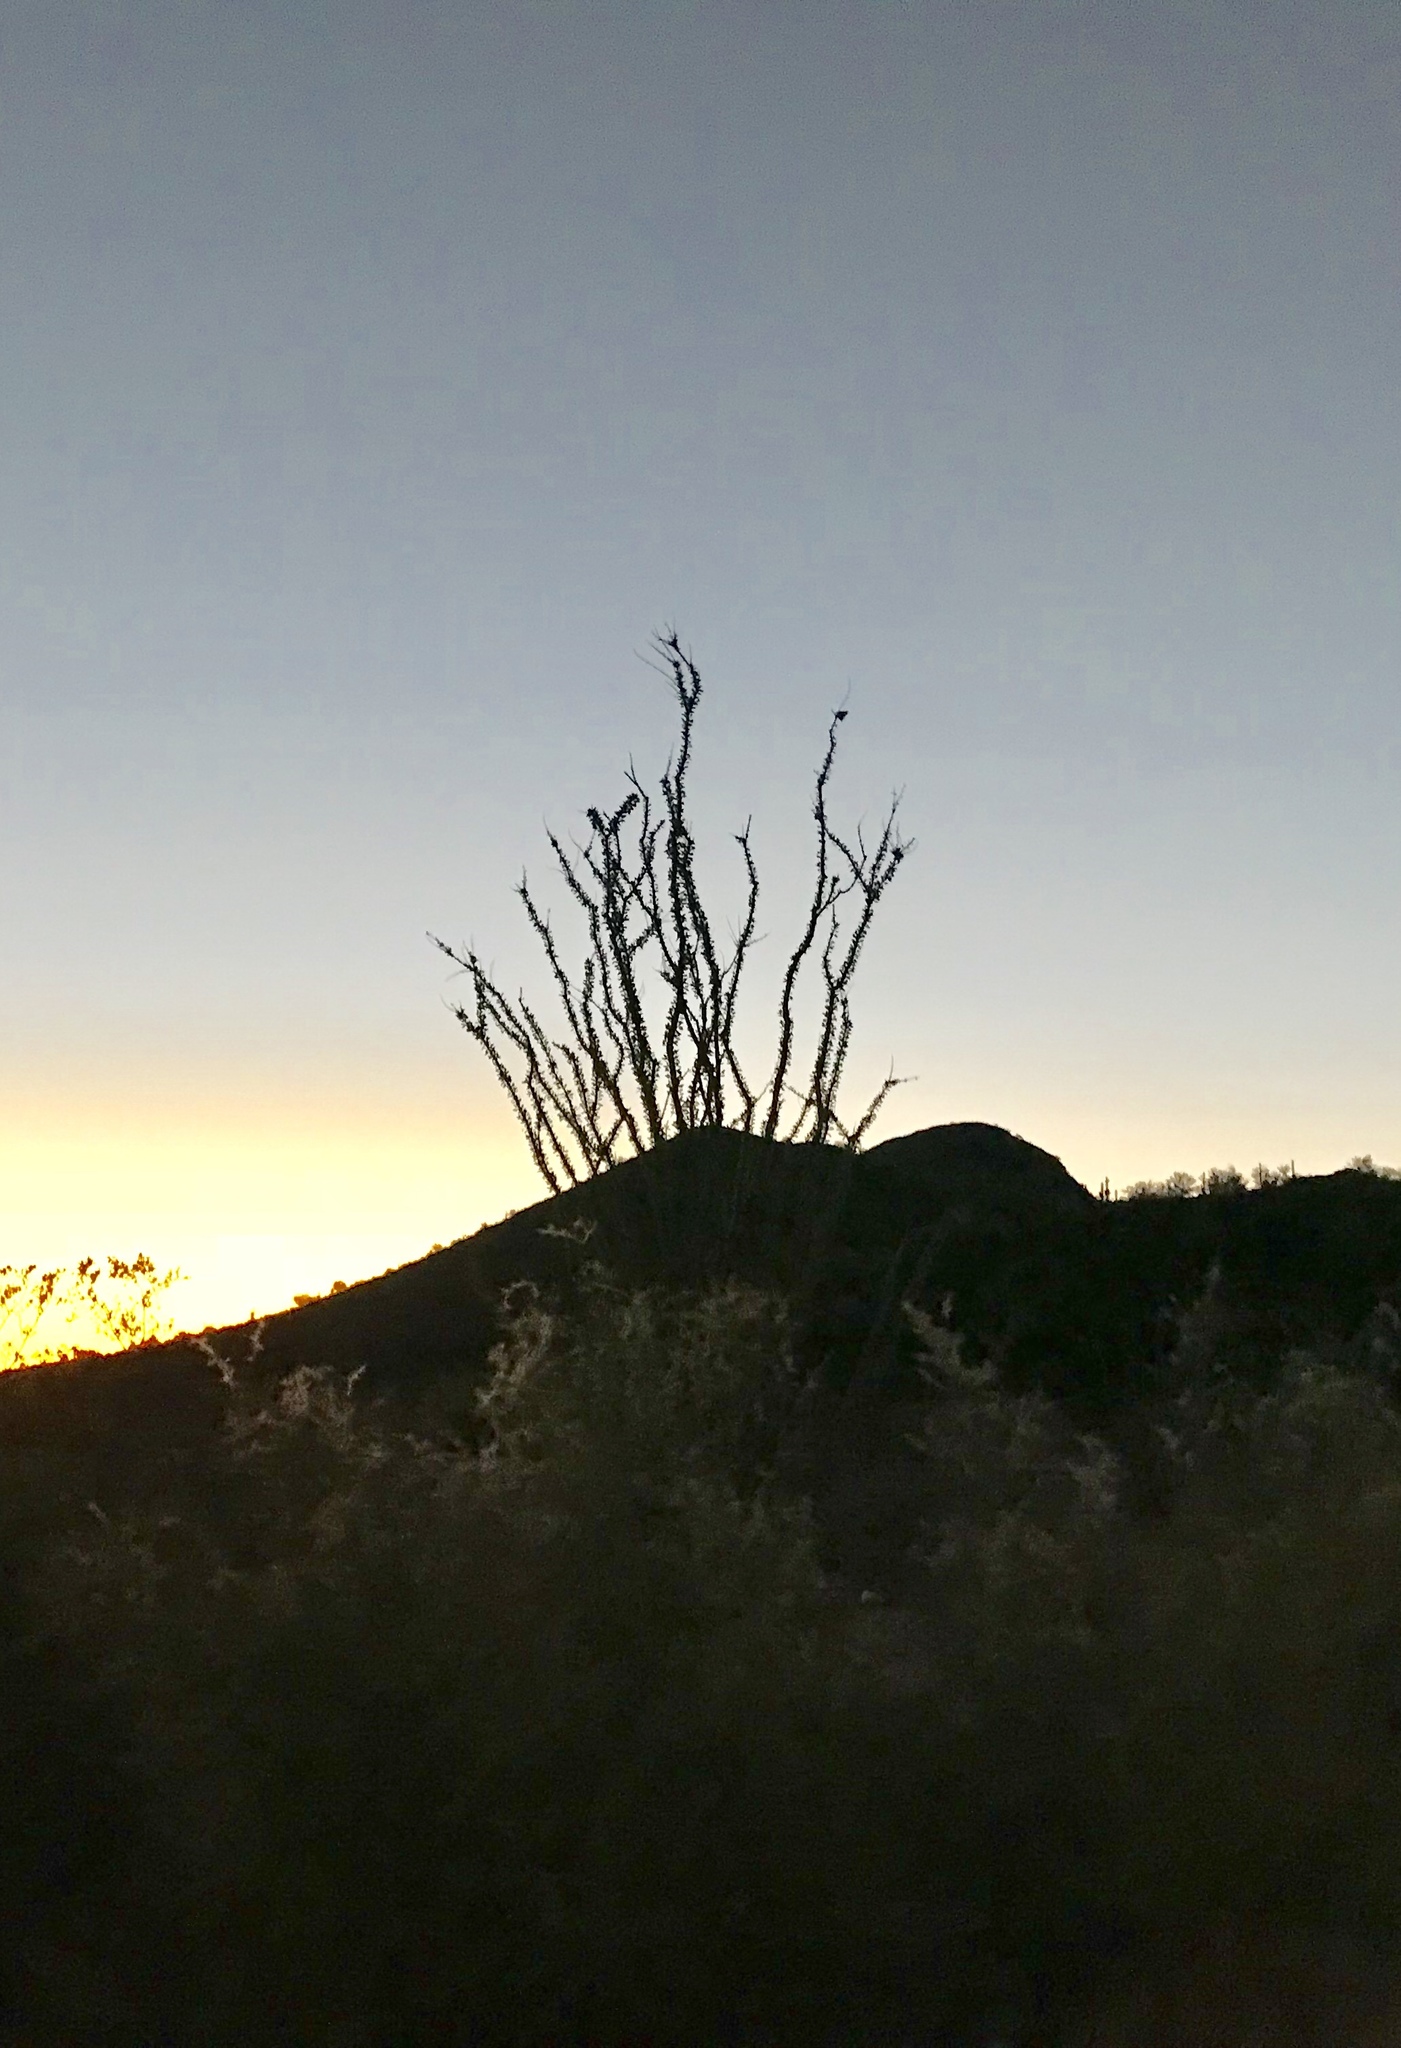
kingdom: Plantae
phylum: Tracheophyta
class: Magnoliopsida
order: Ericales
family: Fouquieriaceae
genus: Fouquieria
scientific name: Fouquieria splendens
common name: Vine-cactus
